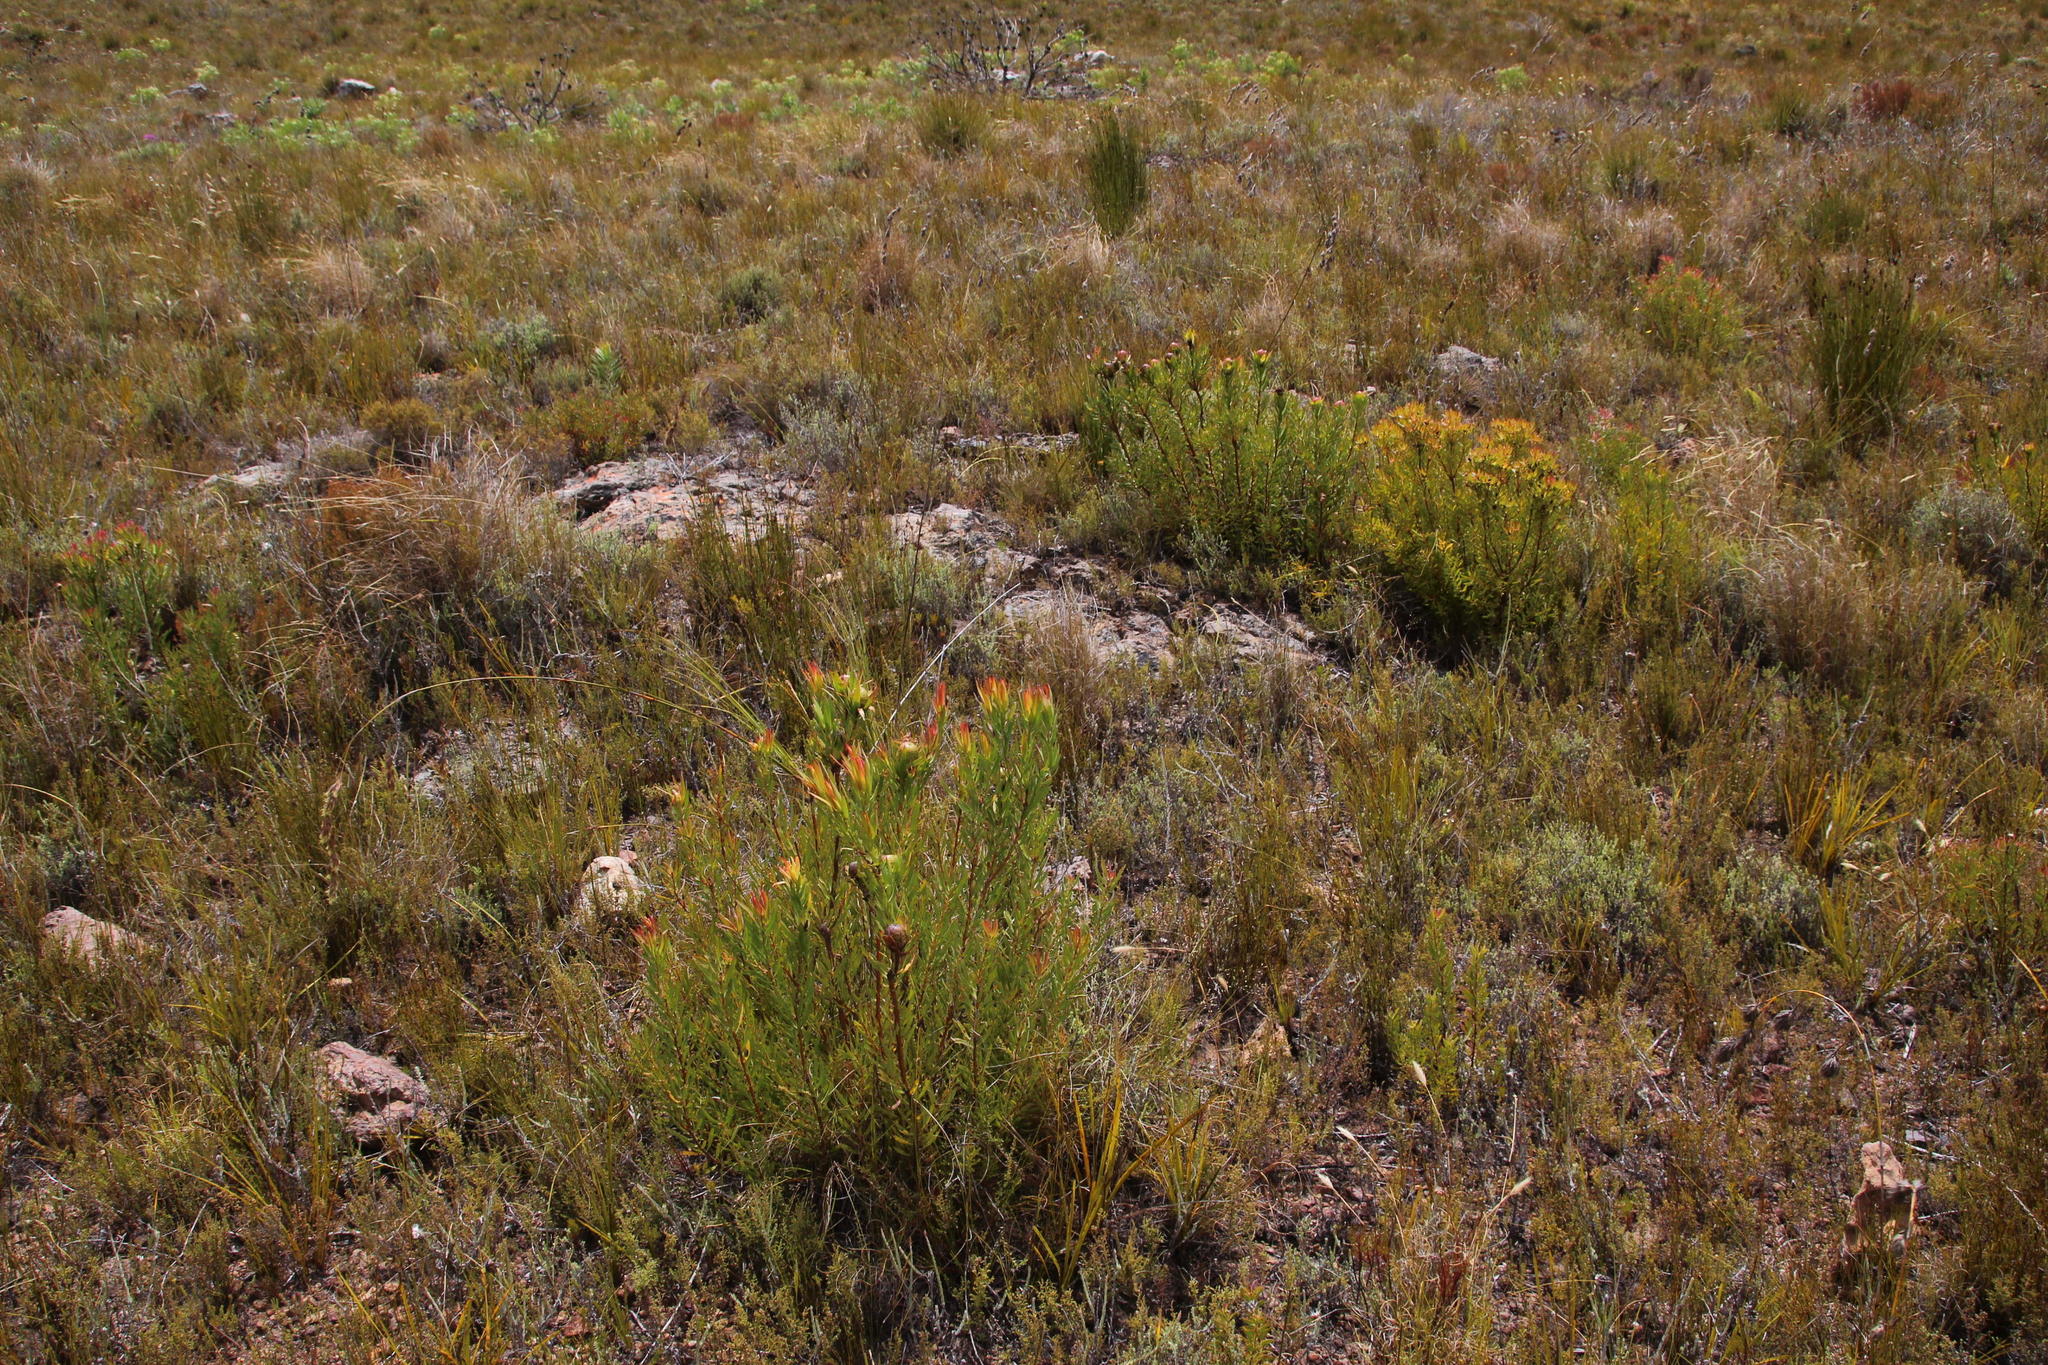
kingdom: Plantae
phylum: Tracheophyta
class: Magnoliopsida
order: Proteales
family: Proteaceae
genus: Leucadendron
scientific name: Leucadendron spissifolium
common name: Spear-leaf conebush
